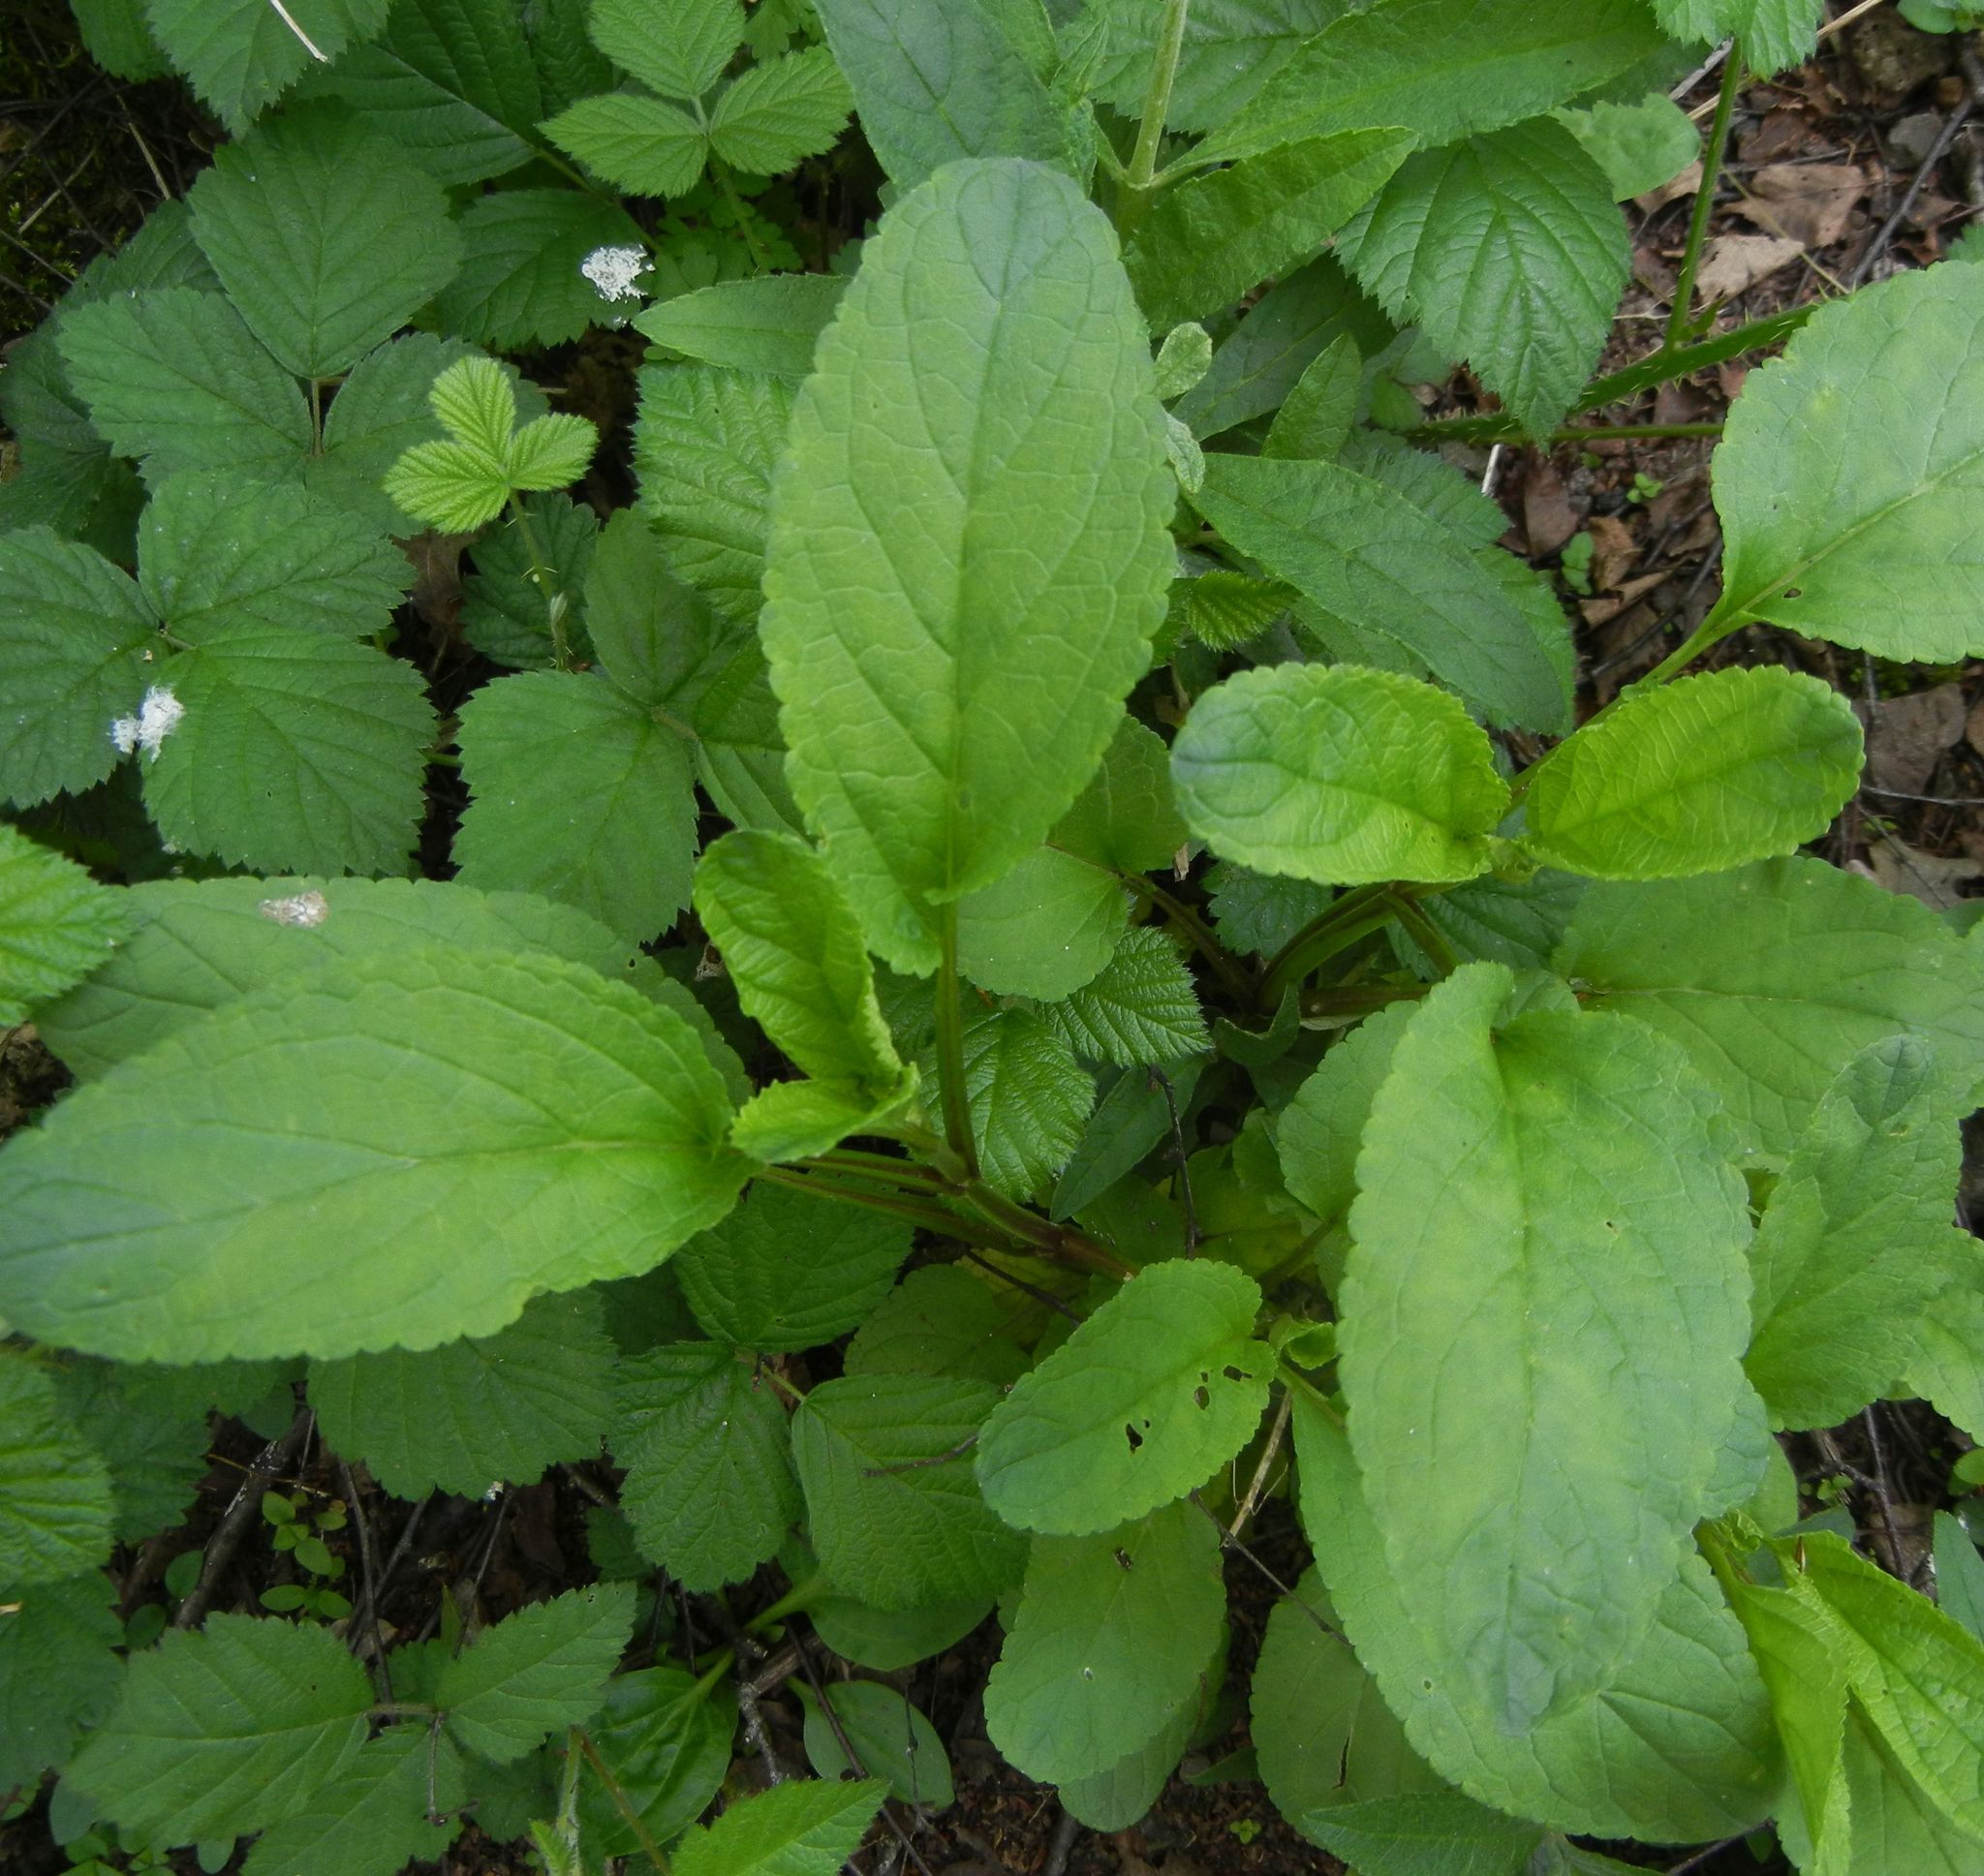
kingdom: Plantae
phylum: Tracheophyta
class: Magnoliopsida
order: Lamiales
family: Scrophulariaceae
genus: Scrophularia
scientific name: Scrophularia auriculata
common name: Water betony
